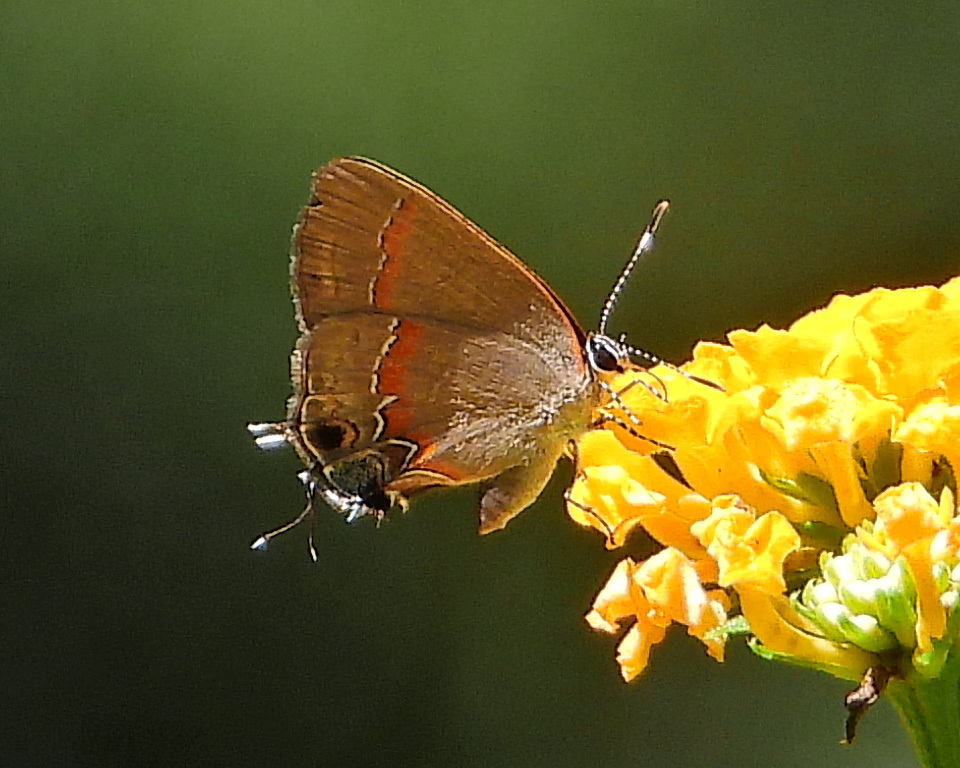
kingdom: Animalia
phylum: Arthropoda
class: Insecta
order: Lepidoptera
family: Lycaenidae
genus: Calycopis
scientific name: Calycopis cecrops
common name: Red-banded hairstreak
